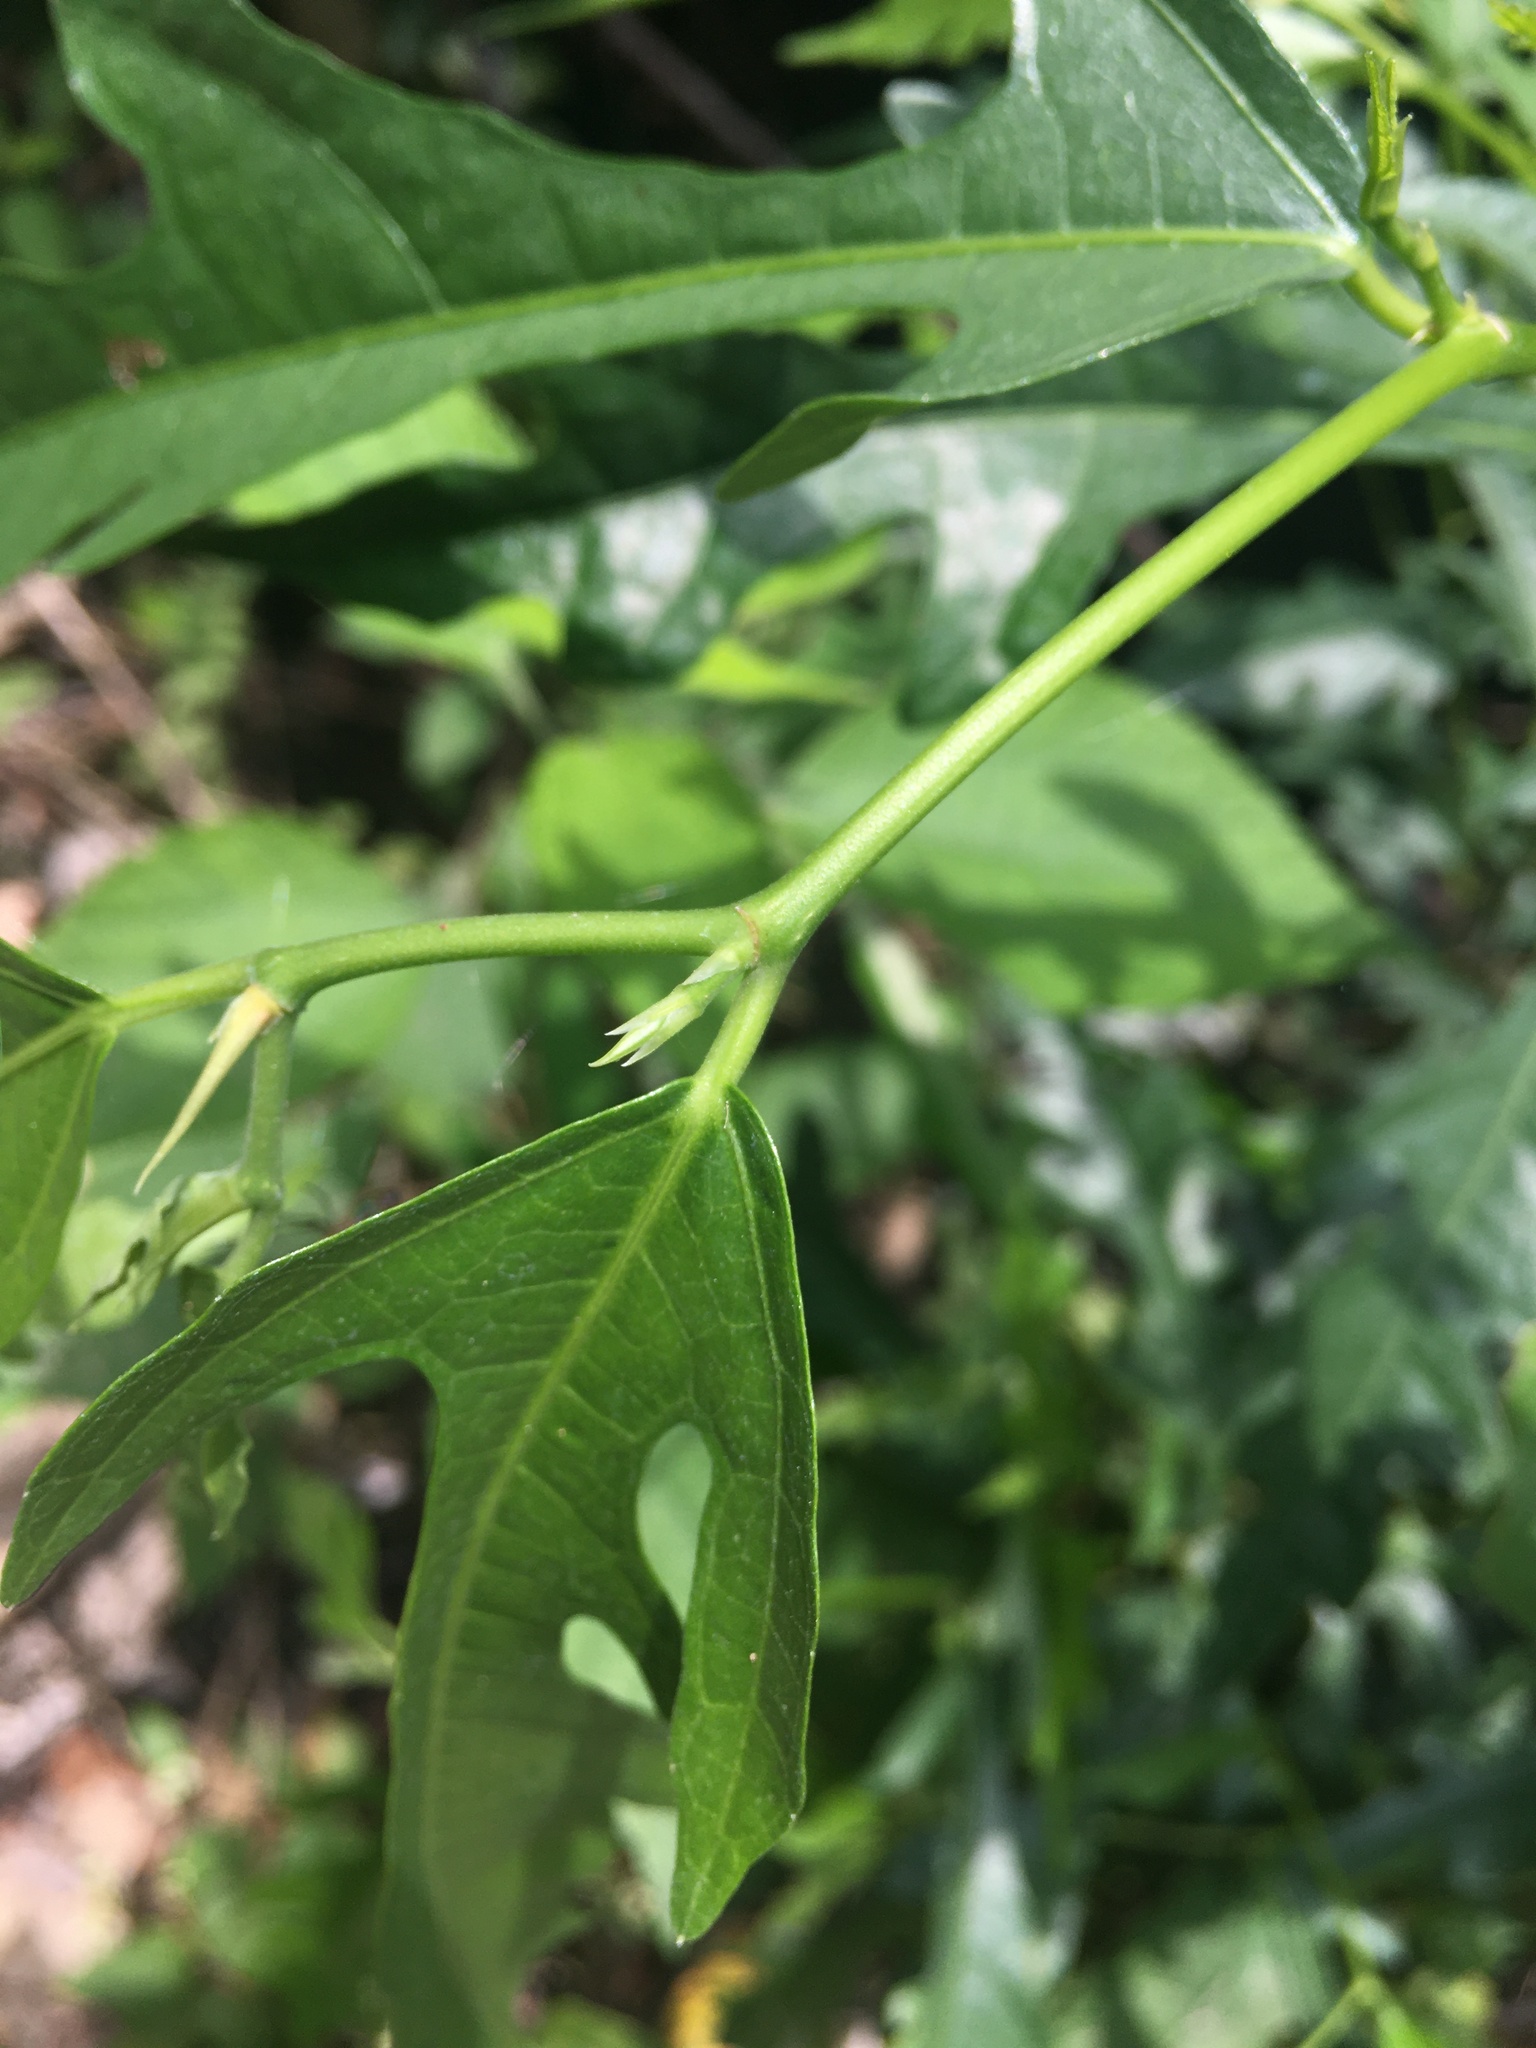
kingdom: Plantae
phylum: Tracheophyta
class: Magnoliopsida
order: Rosales
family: Moraceae
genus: Ficus
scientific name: Ficus ampelos
